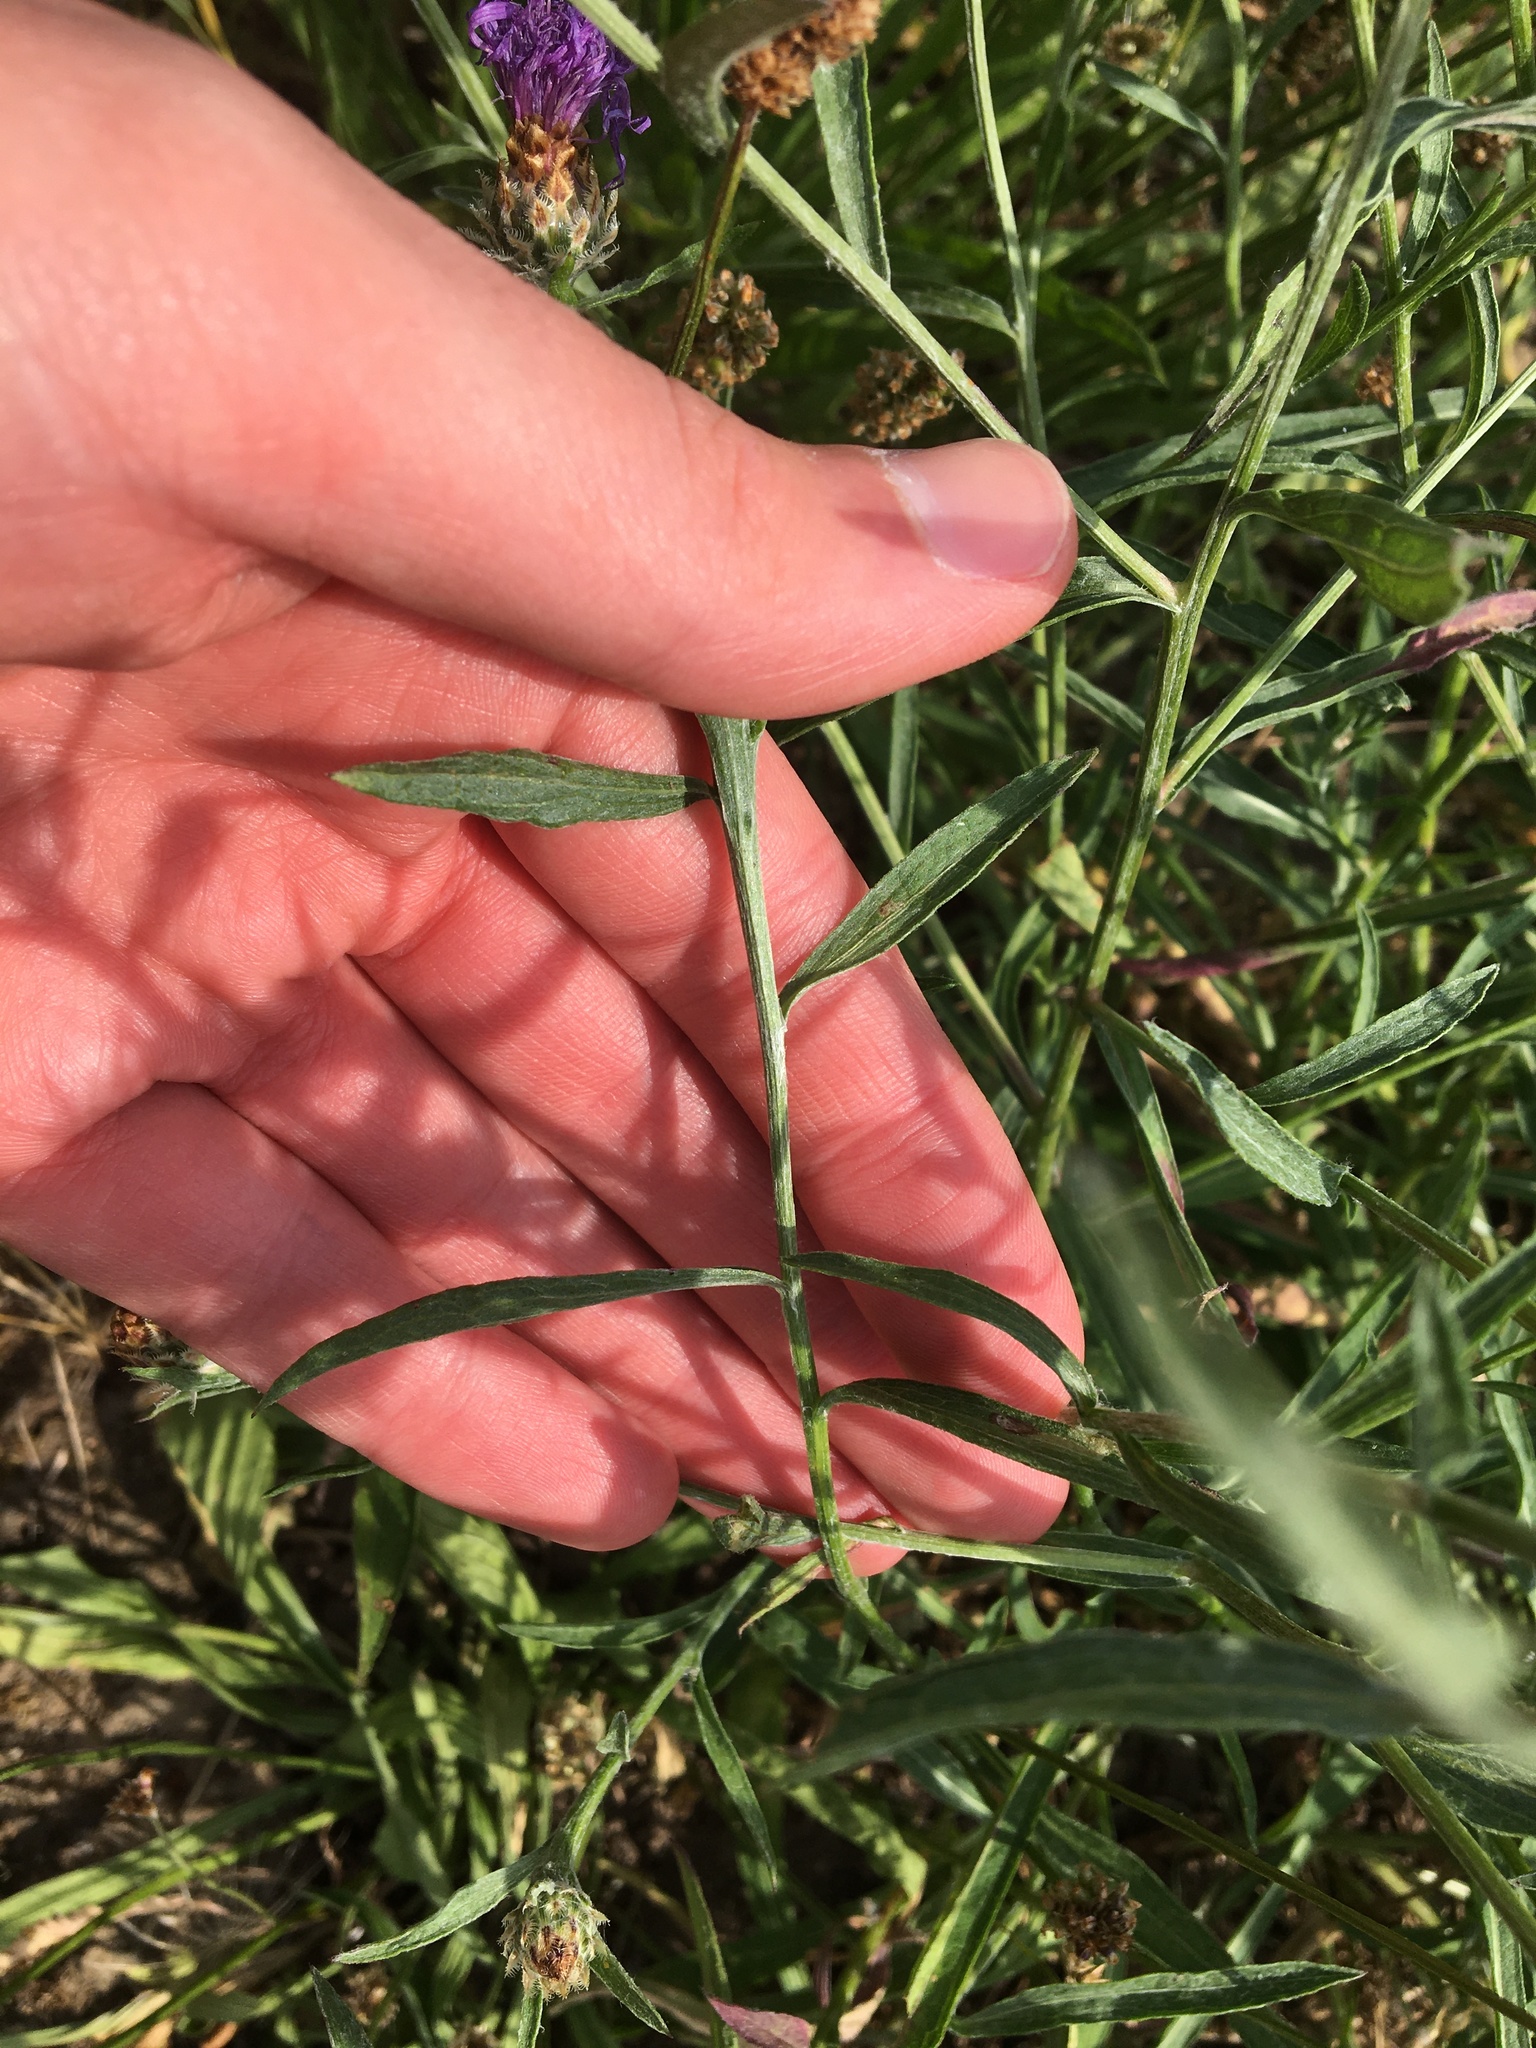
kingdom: Plantae
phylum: Tracheophyta
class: Magnoliopsida
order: Asterales
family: Asteraceae
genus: Centaurea
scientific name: Centaurea jacea
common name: Brown knapweed
